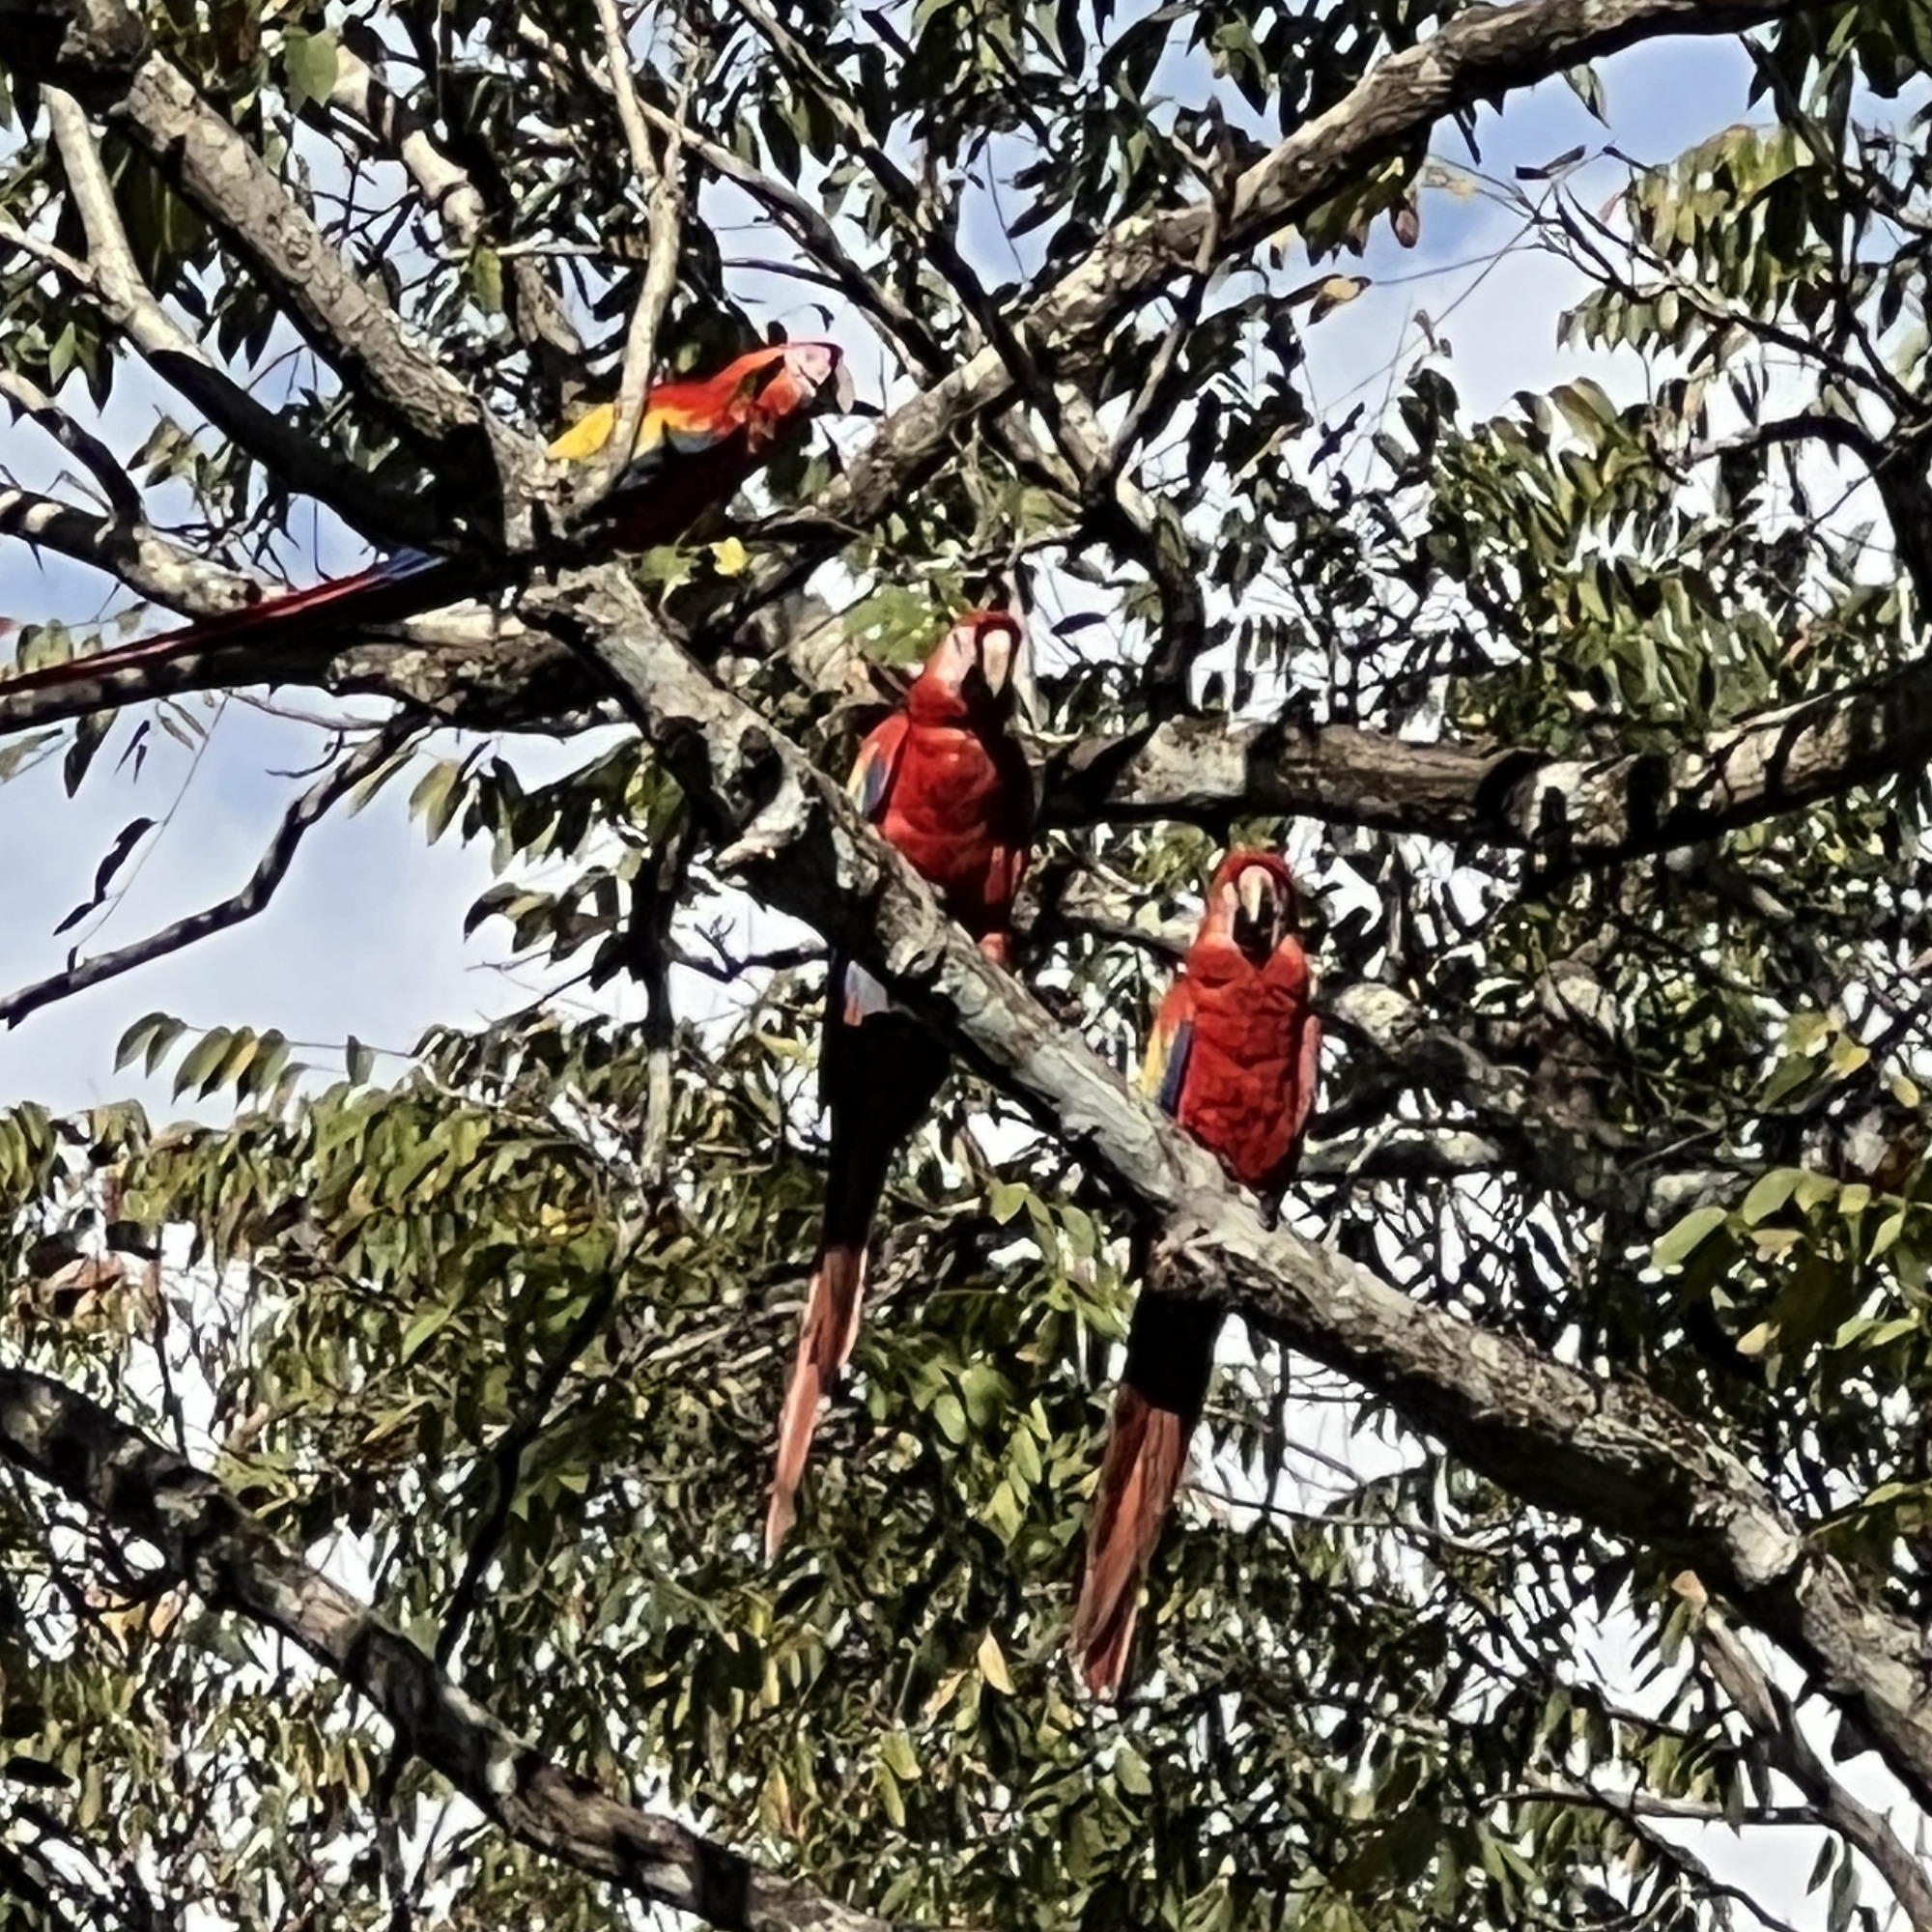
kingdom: Animalia
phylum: Chordata
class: Aves
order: Psittaciformes
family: Psittacidae
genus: Ara
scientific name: Ara macao
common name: Scarlet macaw
